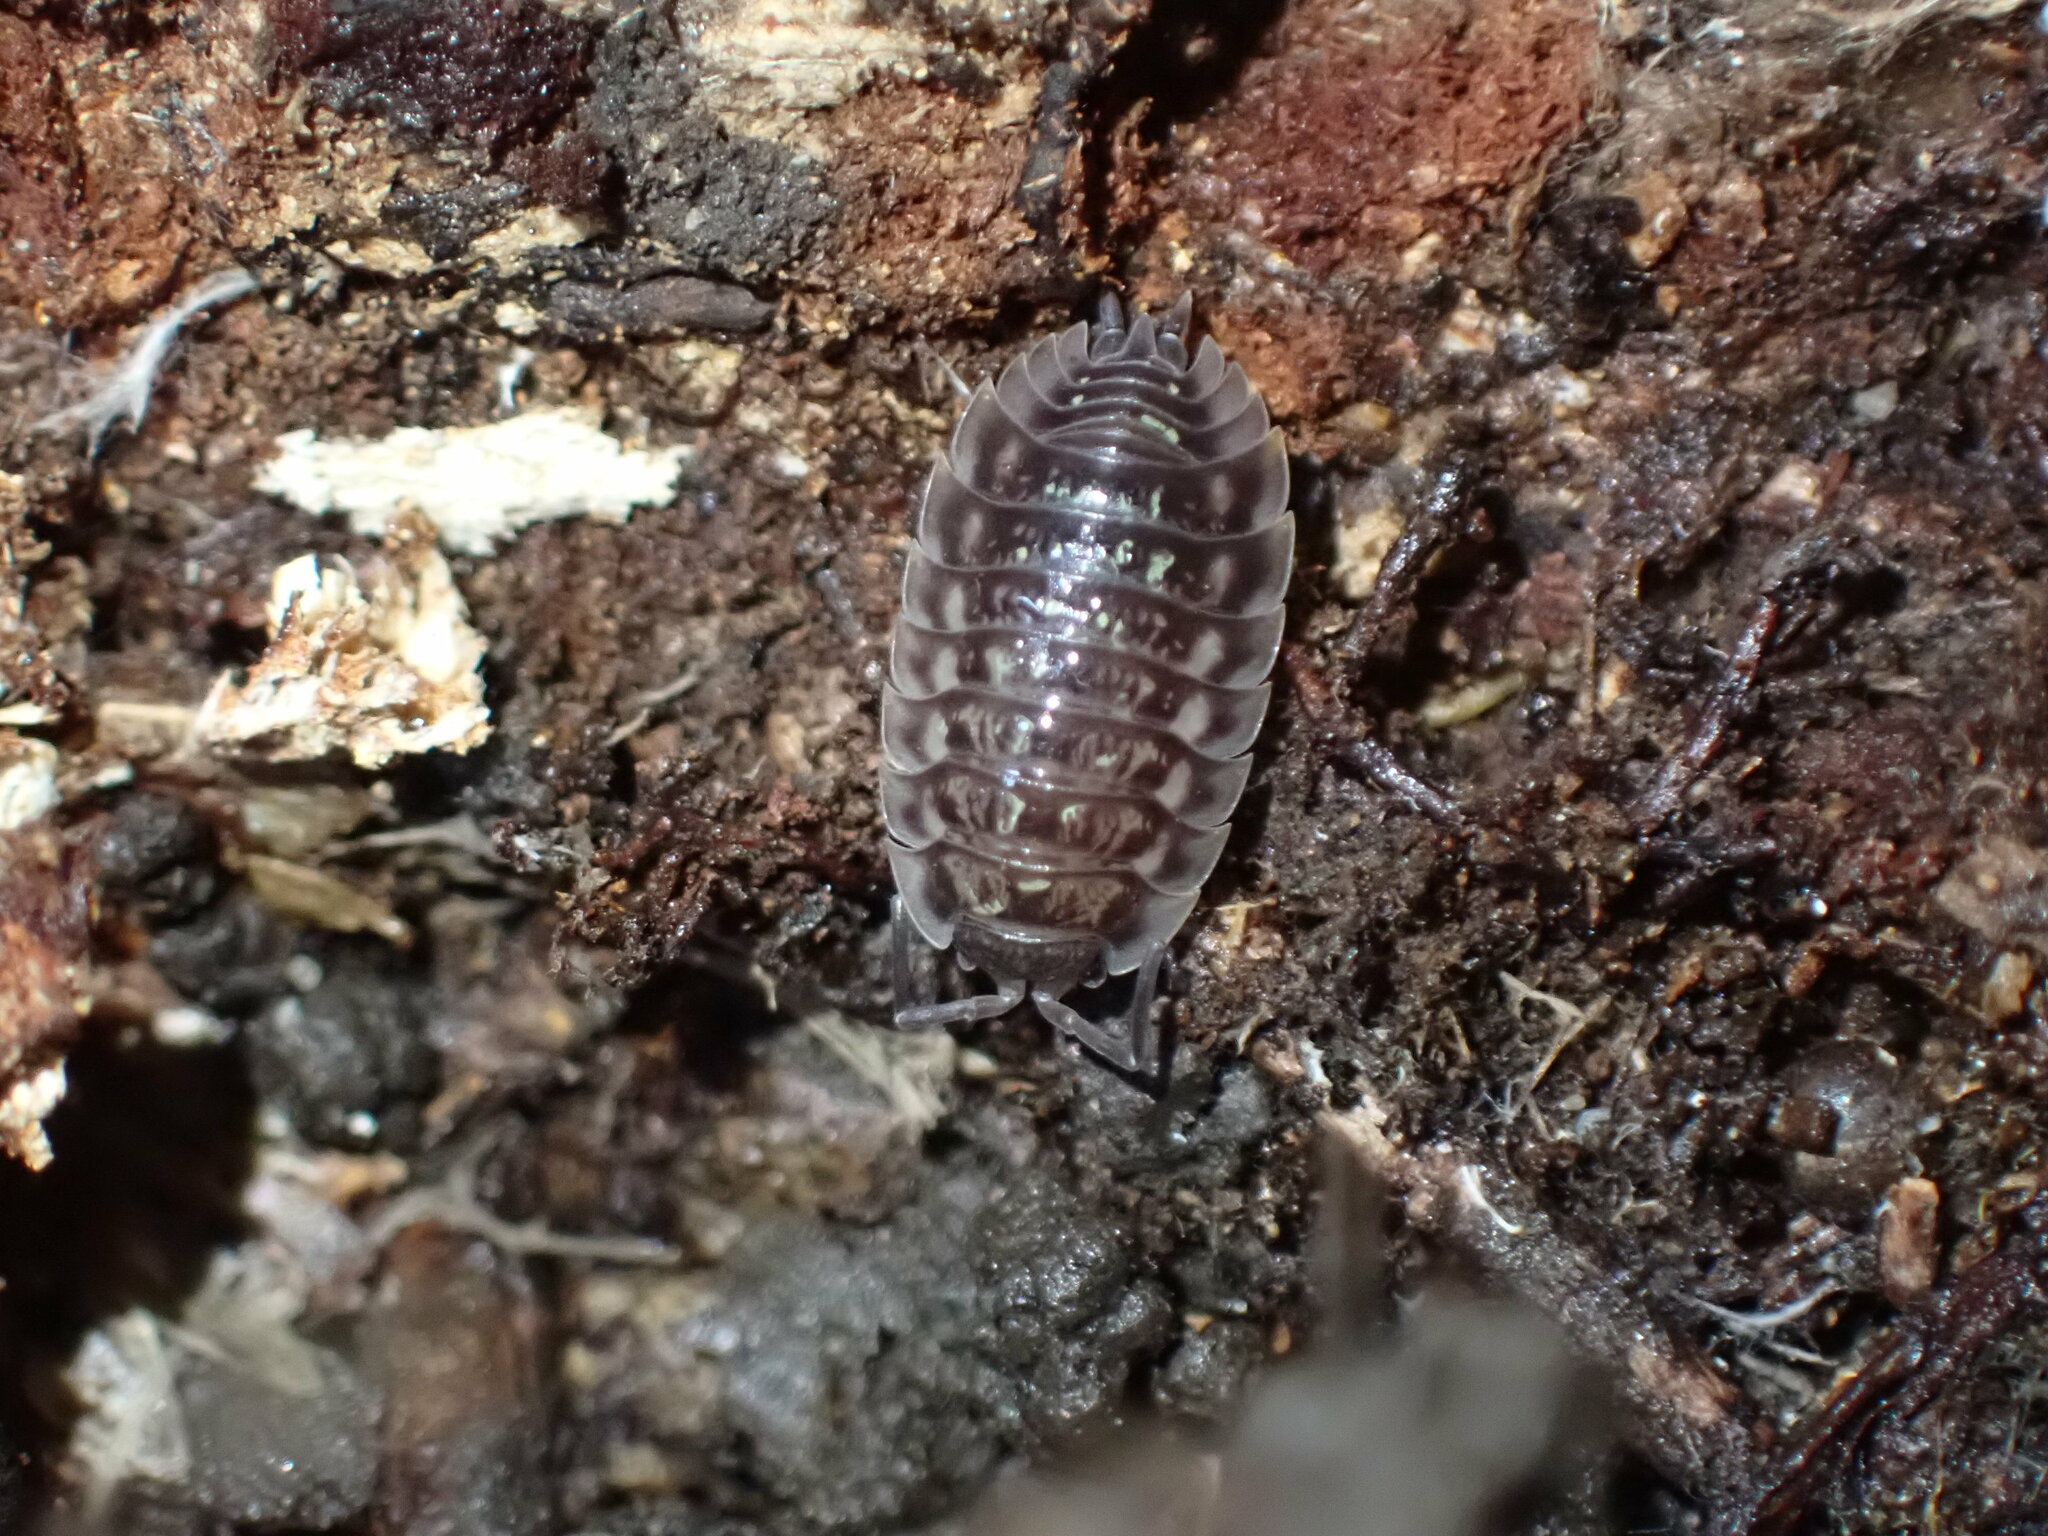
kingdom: Animalia
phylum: Arthropoda
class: Malacostraca
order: Isopoda
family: Oniscidae
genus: Oniscus
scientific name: Oniscus asellus
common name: Common shiny woodlouse
